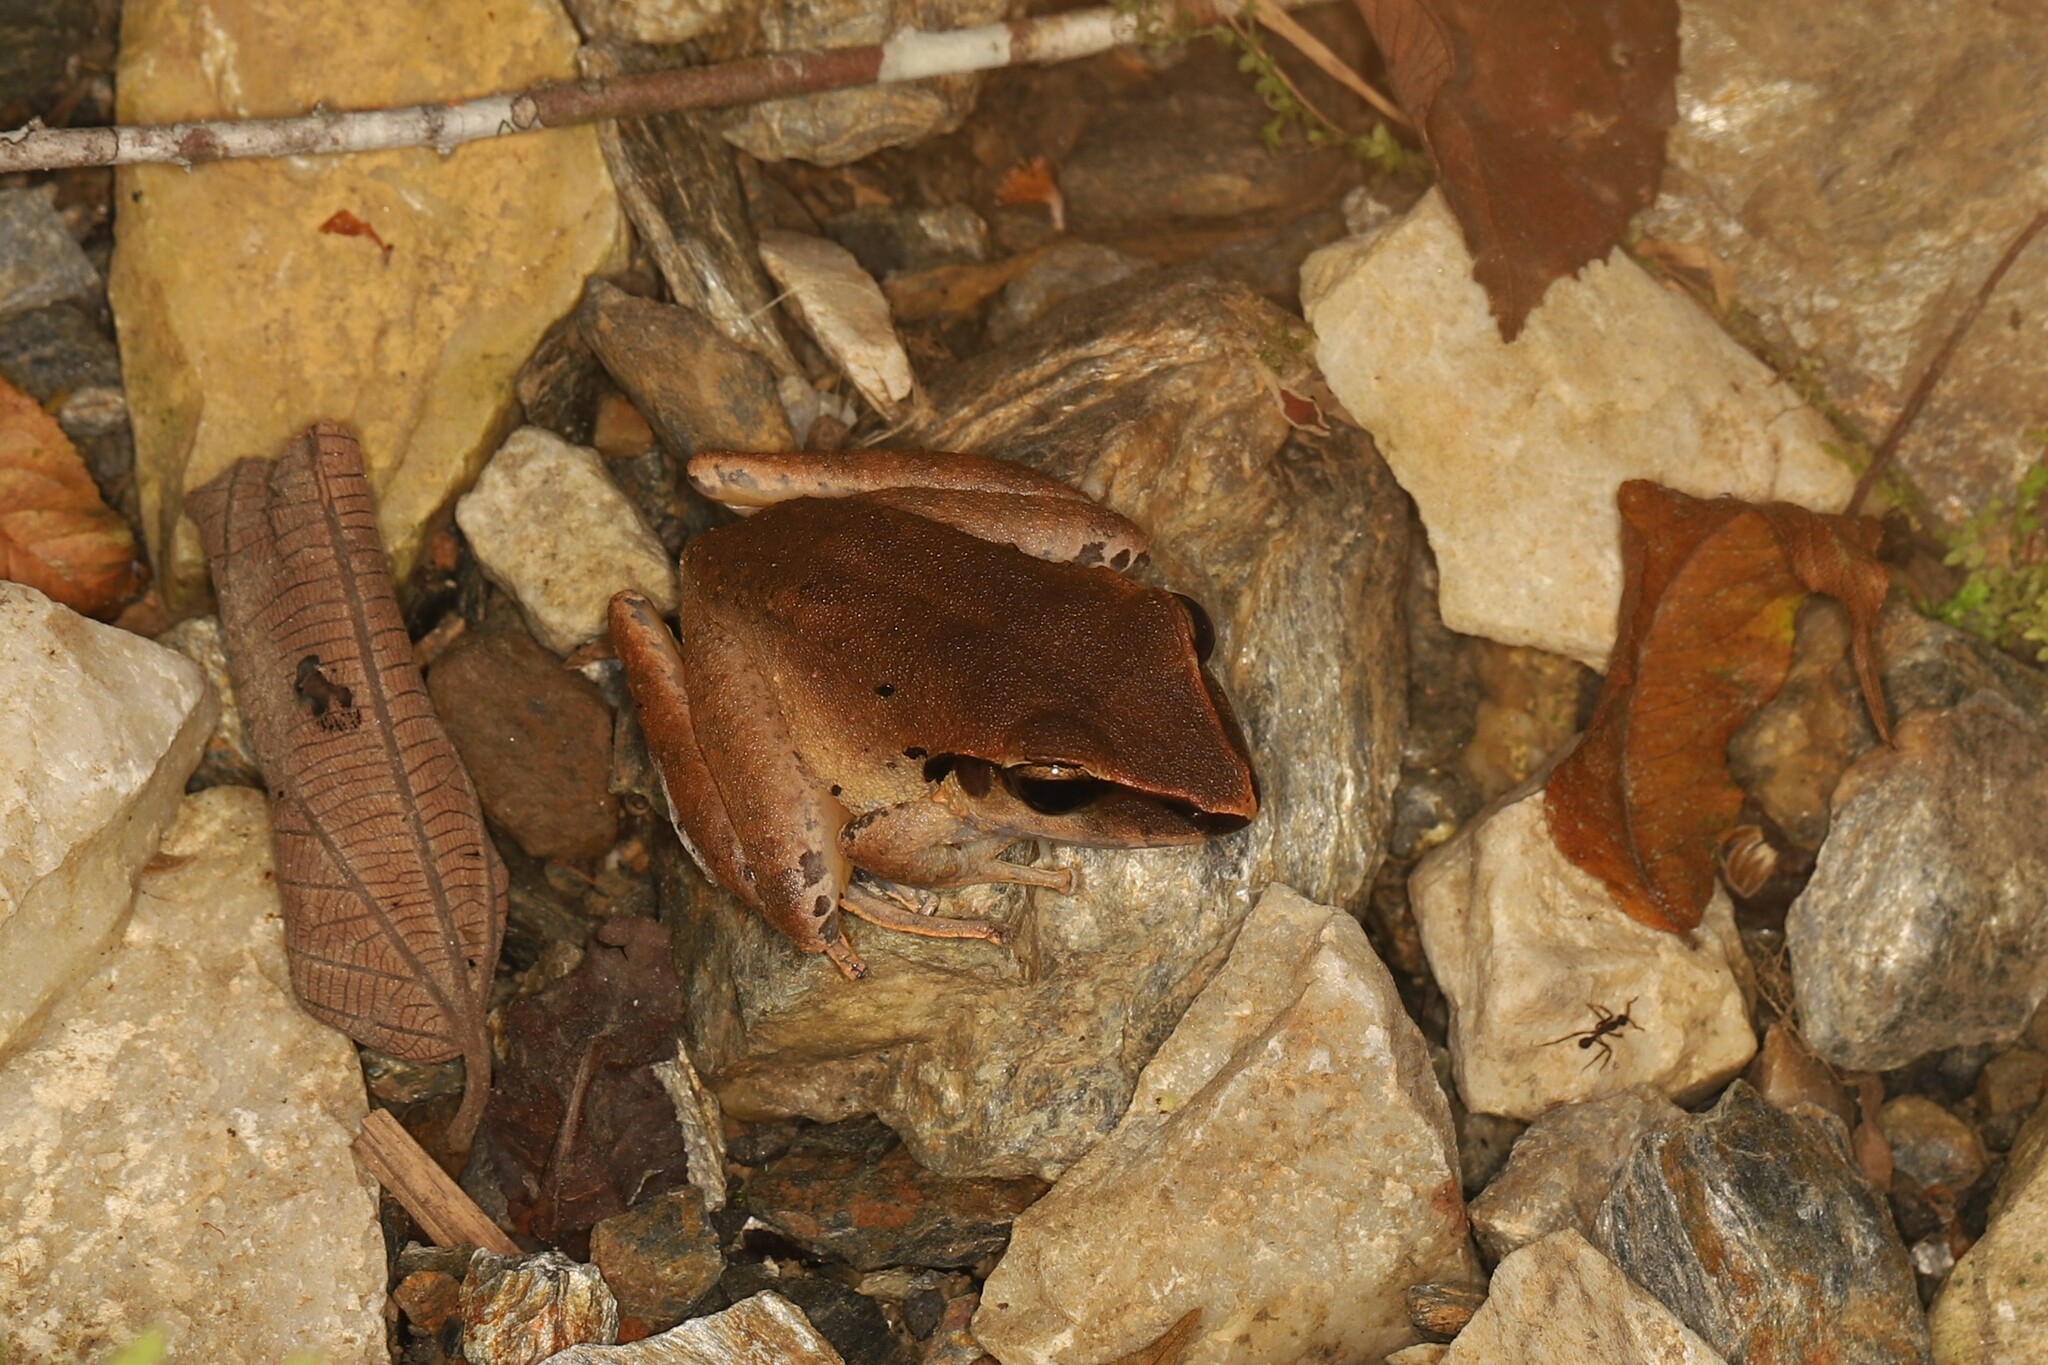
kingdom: Animalia
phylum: Chordata
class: Amphibia
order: Anura
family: Craugastoridae
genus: Craugastor
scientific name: Craugastor metriosistus
